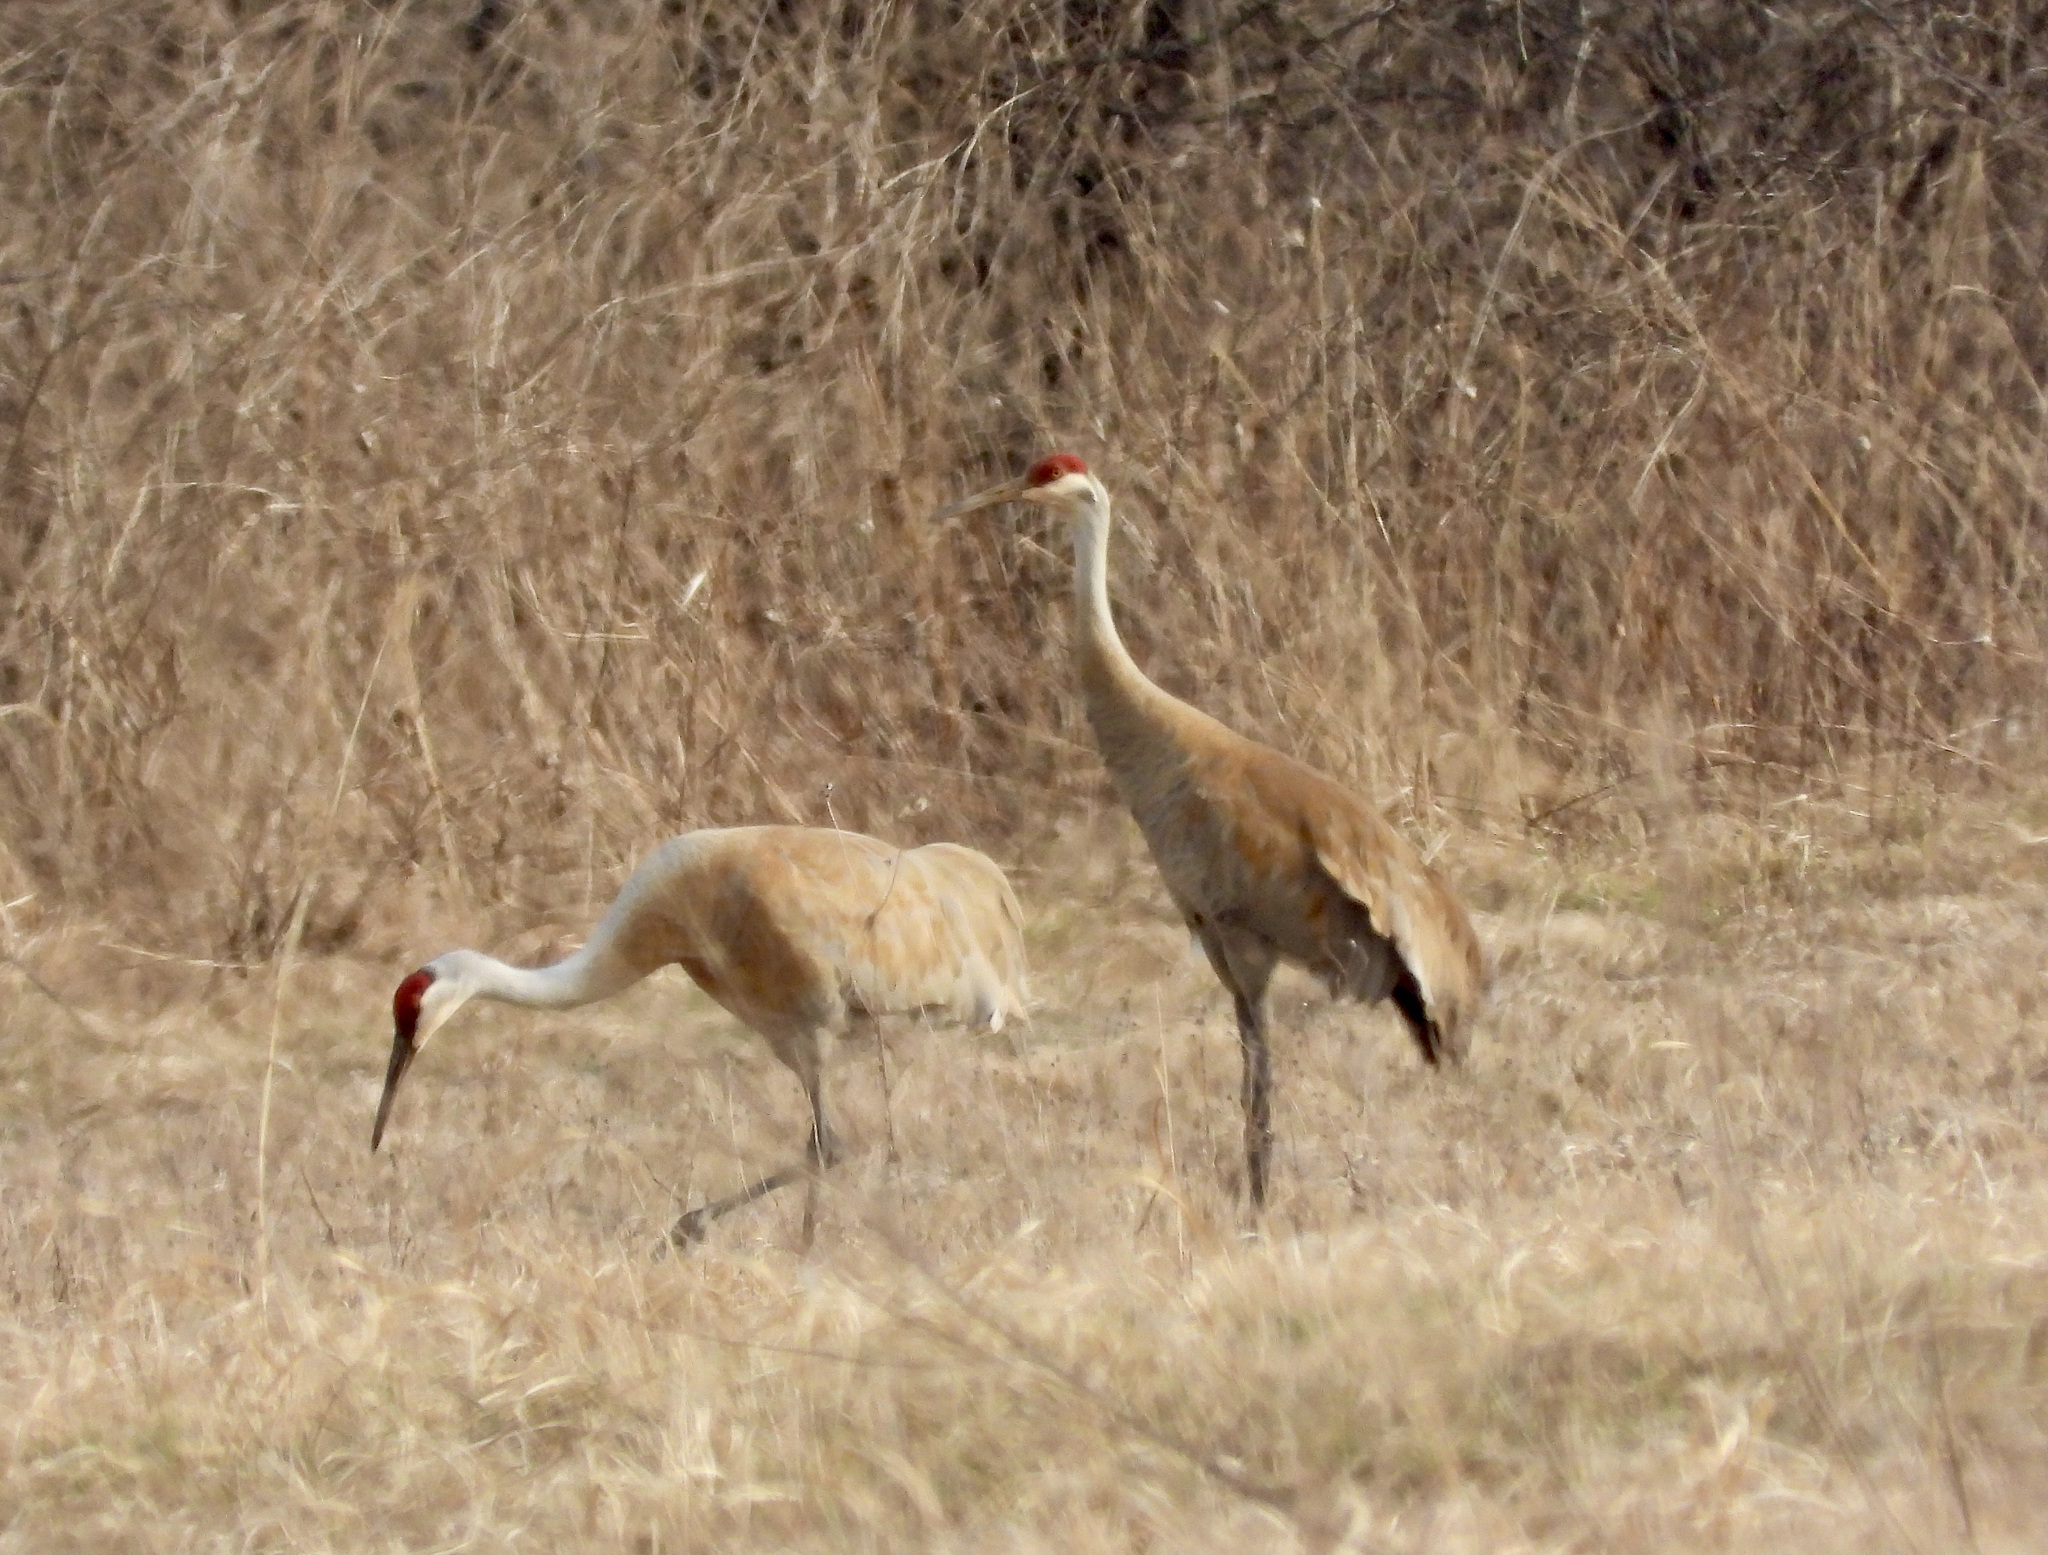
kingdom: Animalia
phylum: Chordata
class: Aves
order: Gruiformes
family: Gruidae
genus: Grus
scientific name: Grus canadensis
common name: Sandhill crane
